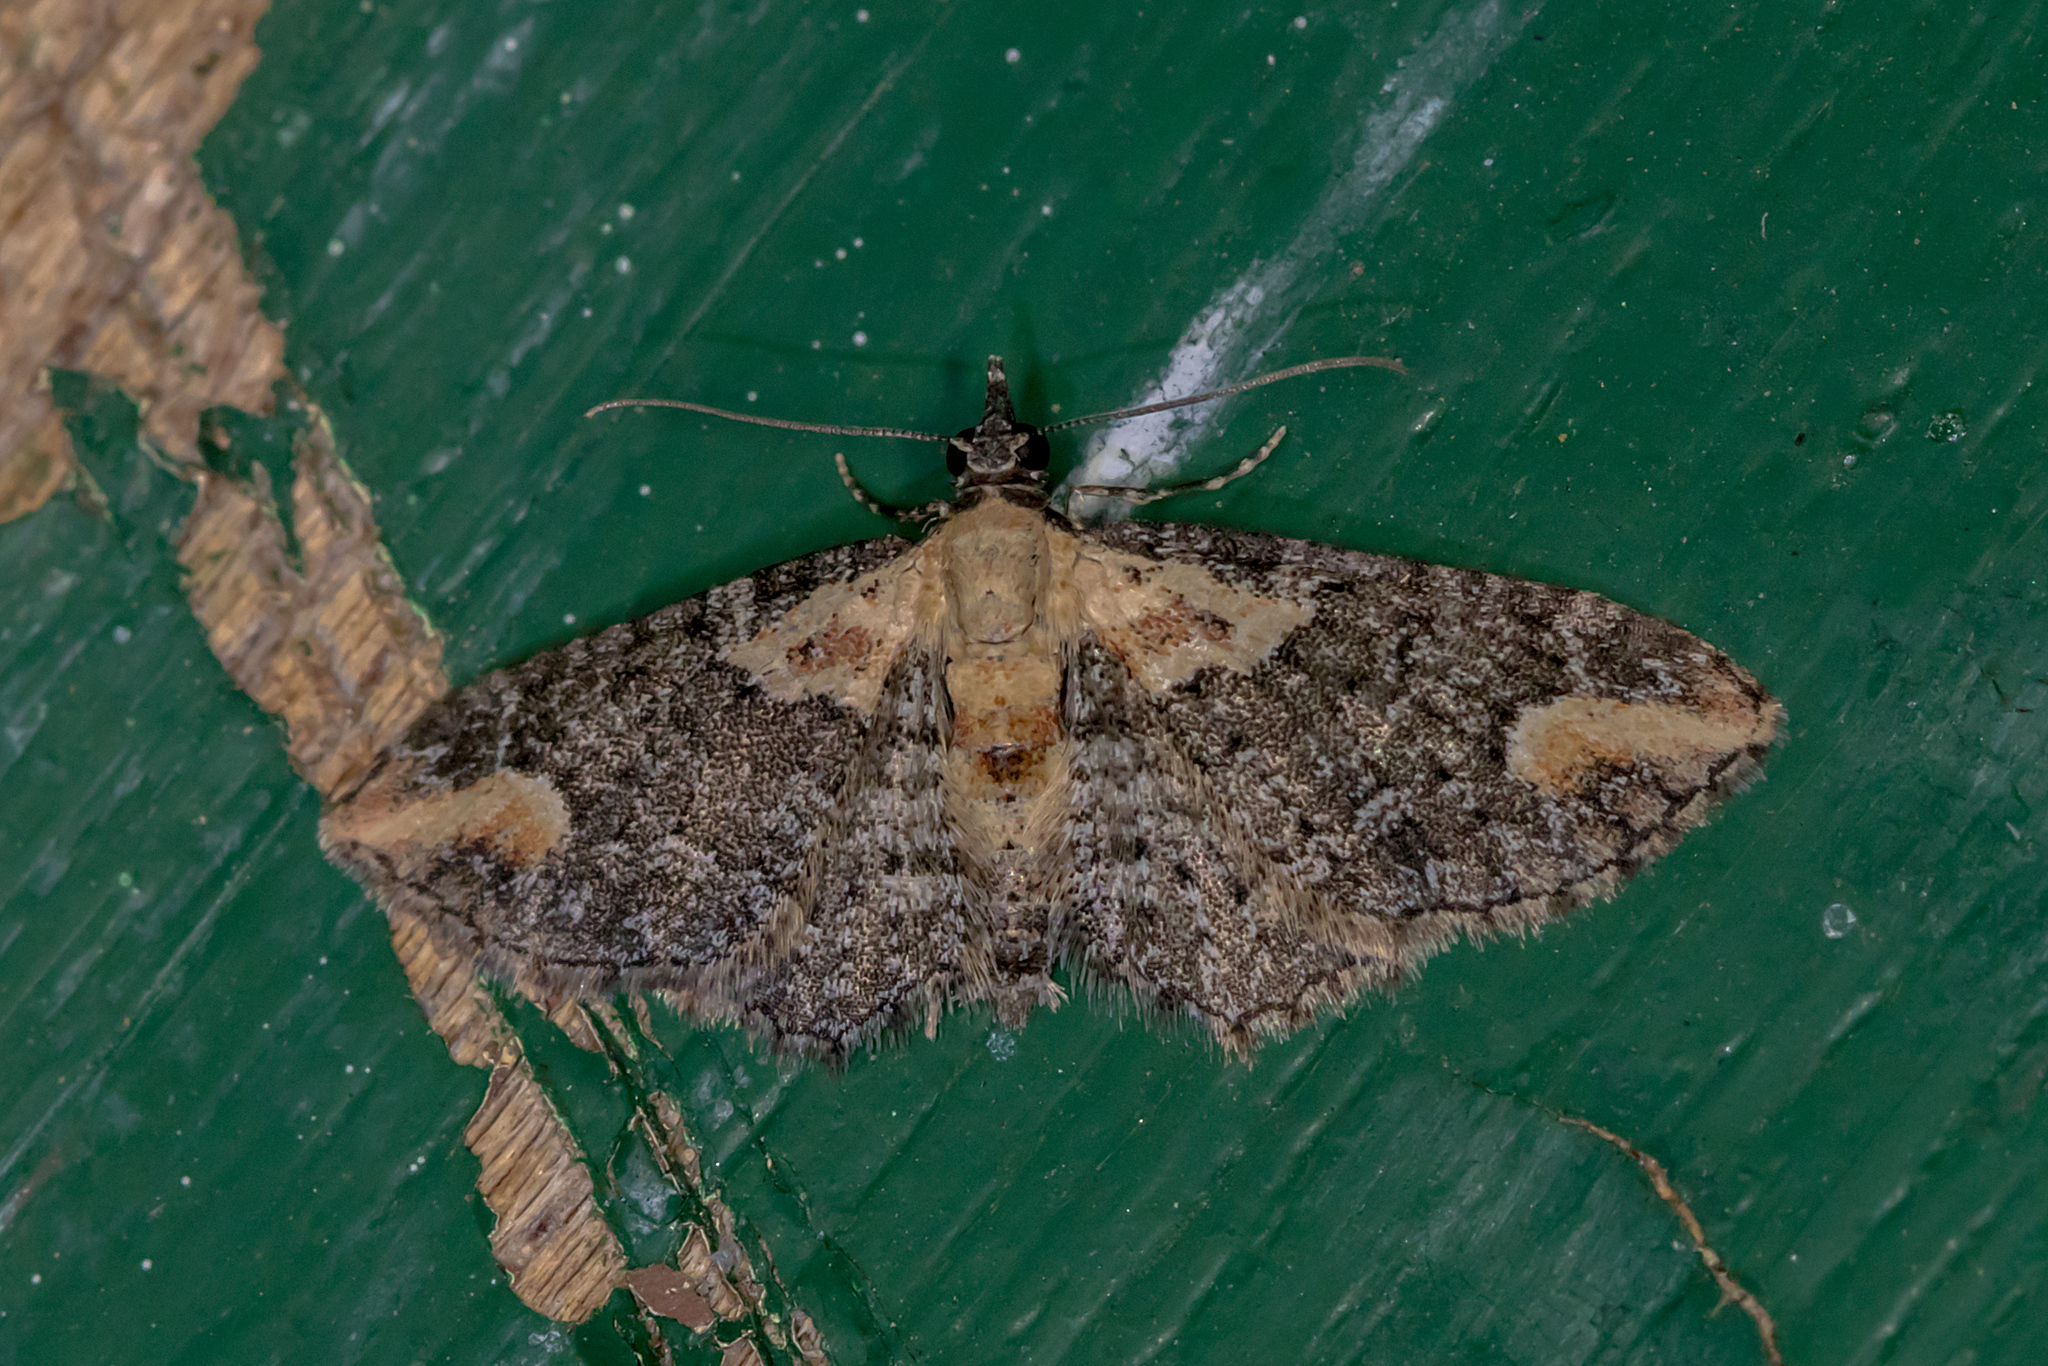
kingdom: Animalia
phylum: Arthropoda
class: Insecta
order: Lepidoptera
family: Geometridae
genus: Pasiphilodes
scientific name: Pasiphilodes testulata
